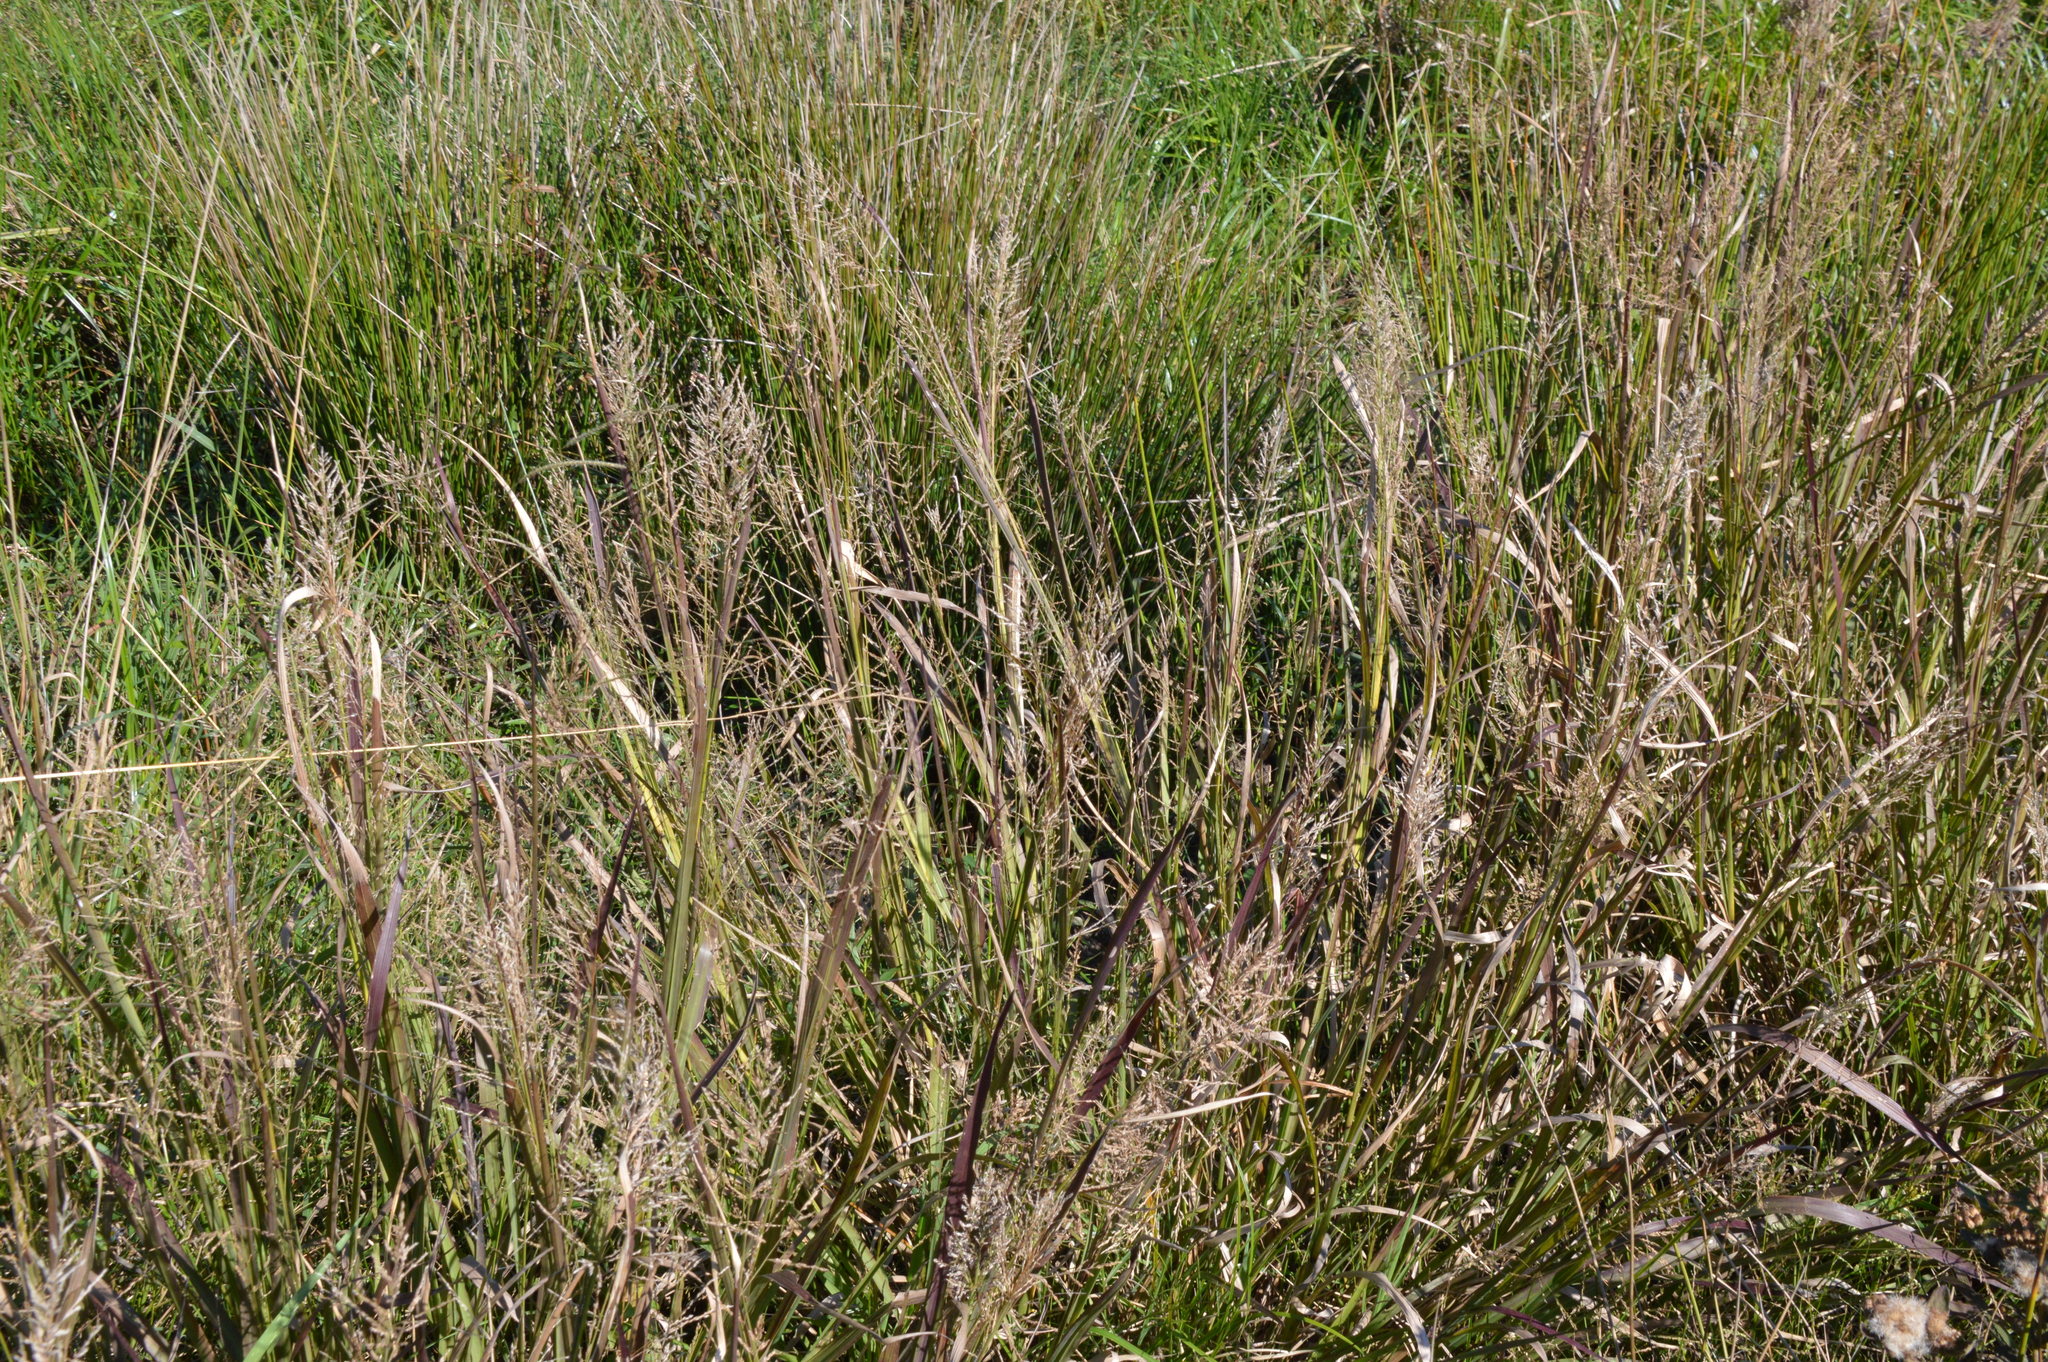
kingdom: Plantae
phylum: Tracheophyta
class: Liliopsida
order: Poales
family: Poaceae
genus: Coleataenia
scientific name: Coleataenia rigidula
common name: Redtop panicgrass
